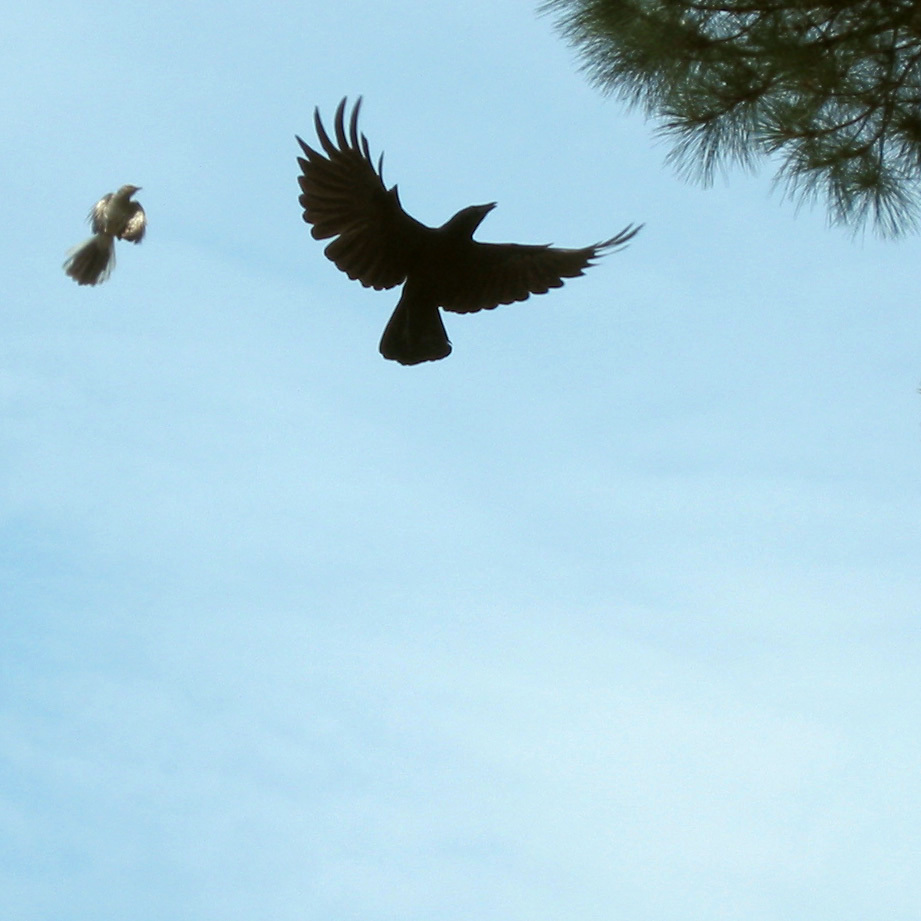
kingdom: Animalia
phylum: Chordata
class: Aves
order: Passeriformes
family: Mimidae
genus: Mimus
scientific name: Mimus polyglottos
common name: Northern mockingbird
